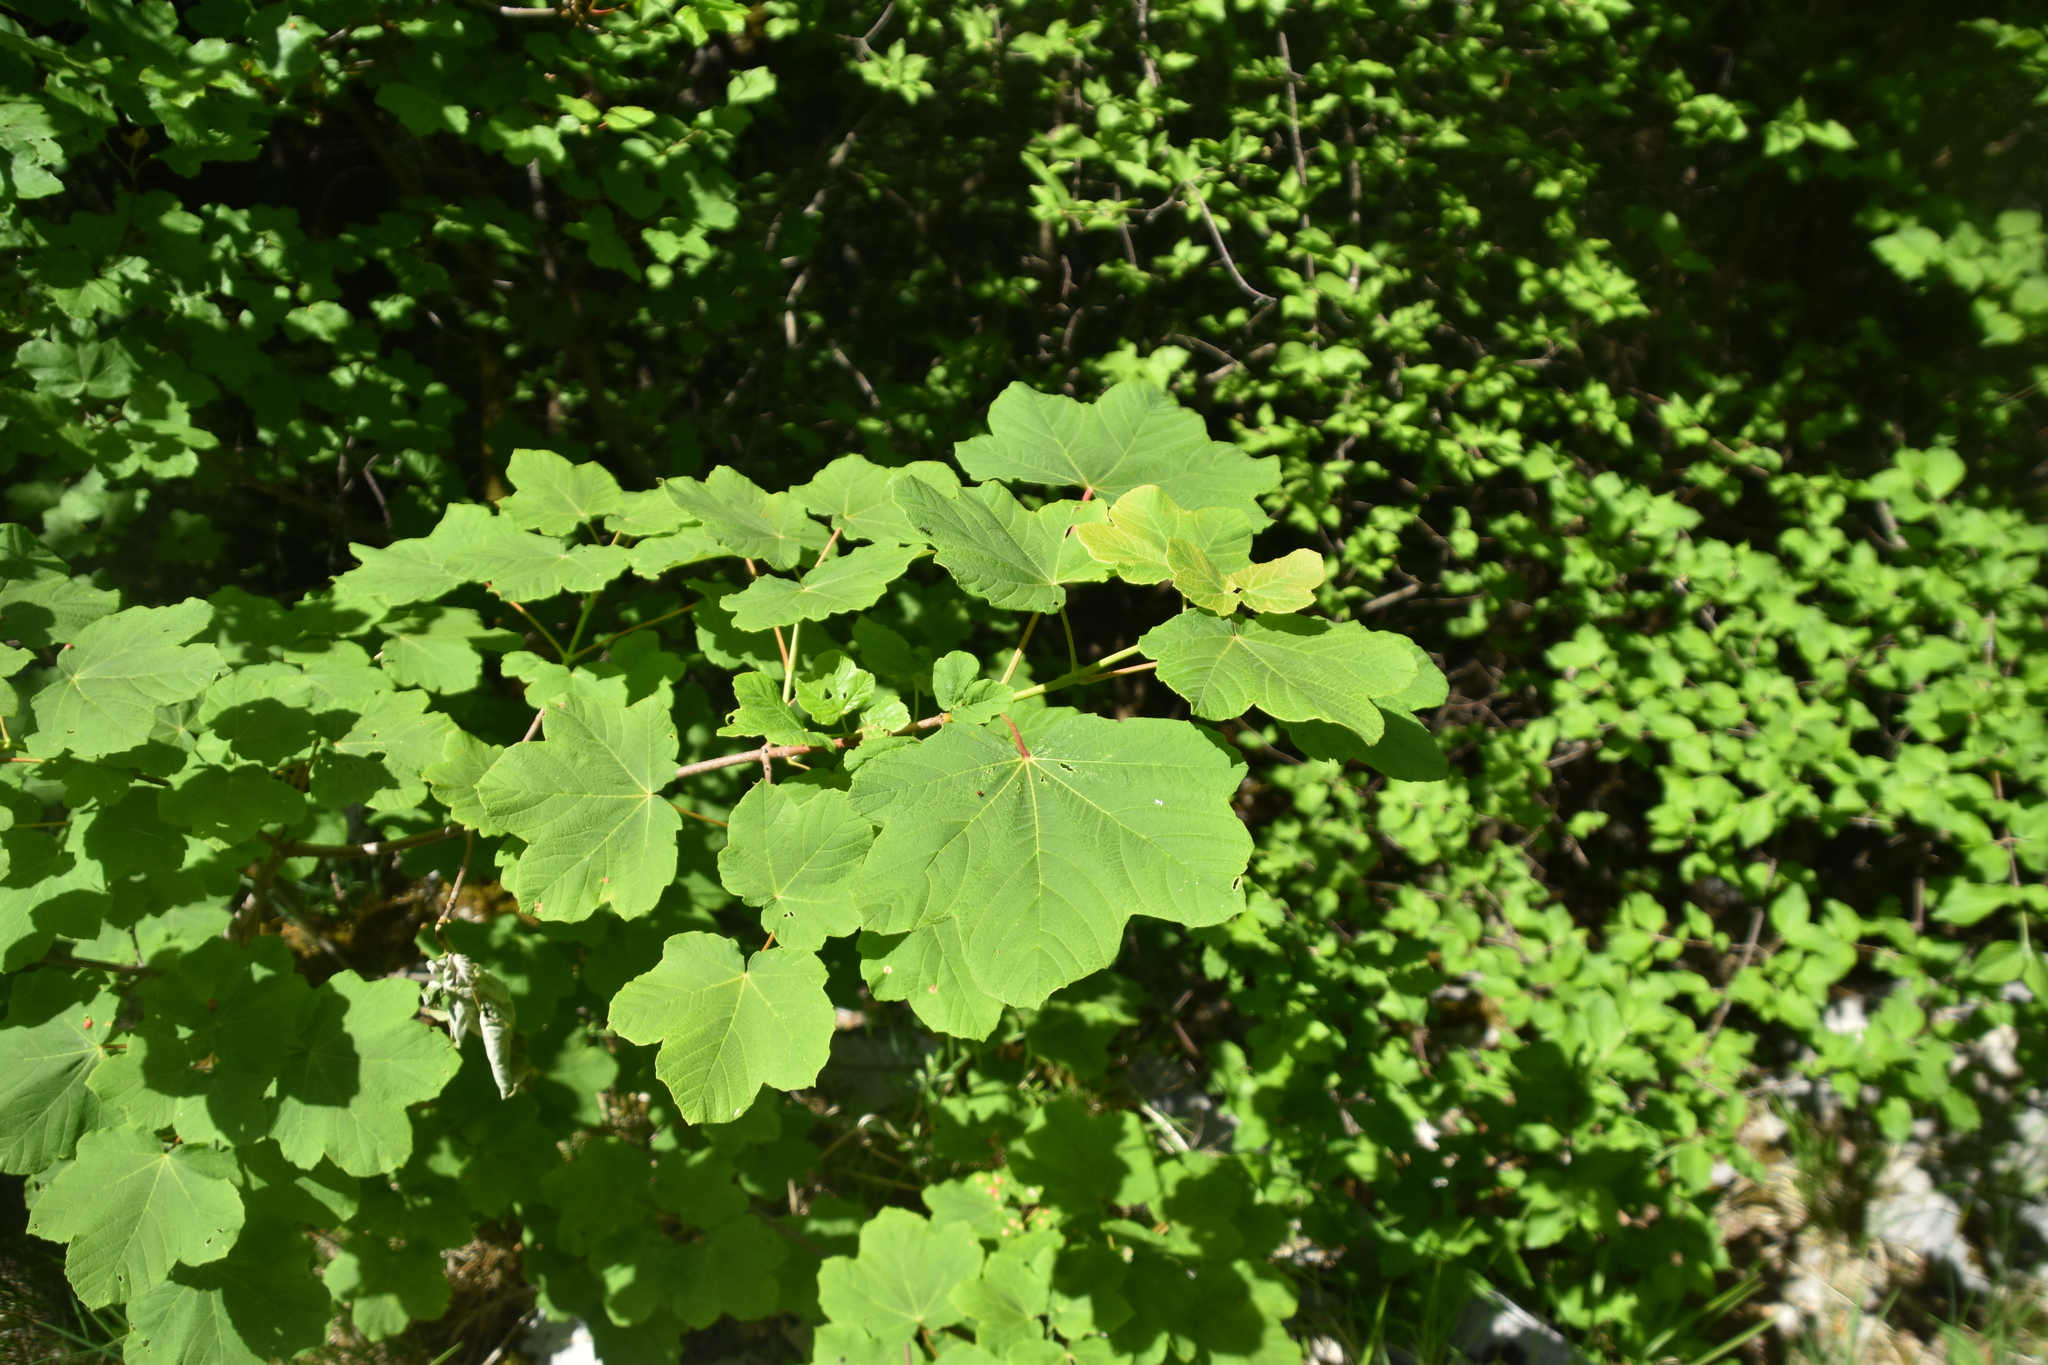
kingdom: Plantae
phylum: Tracheophyta
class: Magnoliopsida
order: Sapindales
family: Sapindaceae
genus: Acer
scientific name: Acer obtusatum
